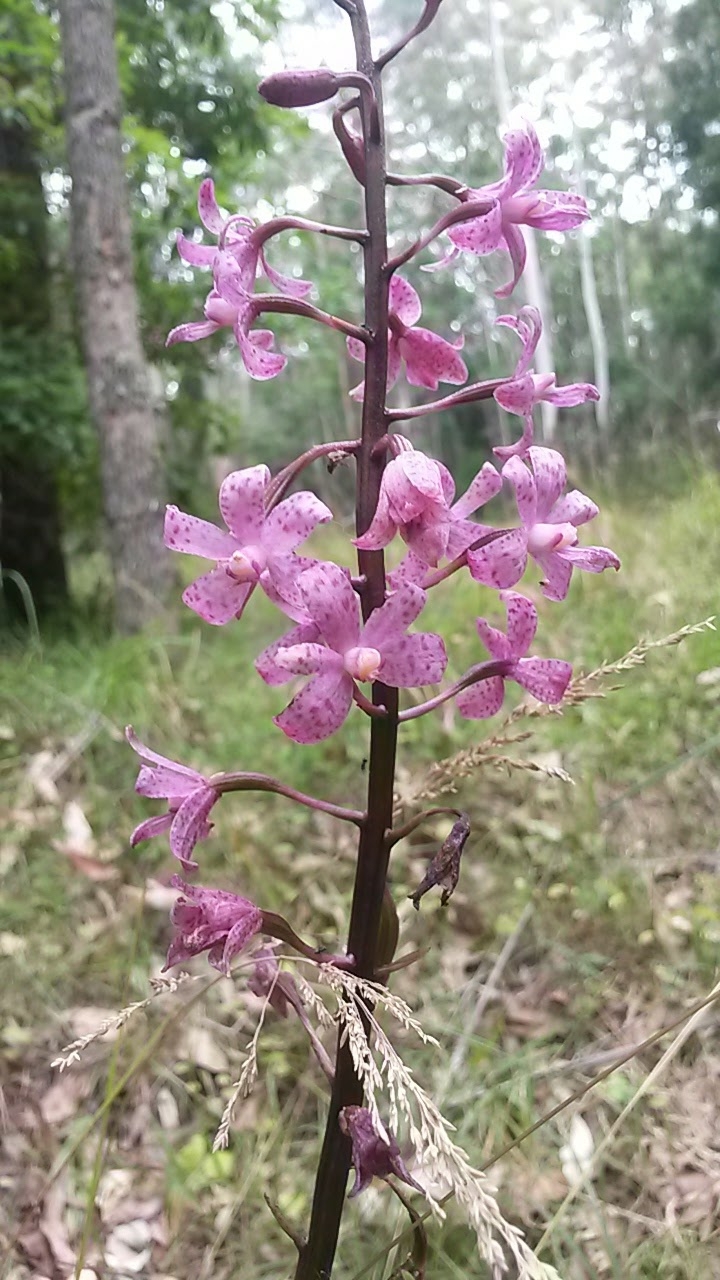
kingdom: Plantae
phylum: Tracheophyta
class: Liliopsida
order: Asparagales
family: Orchidaceae
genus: Dipodium
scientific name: Dipodium roseum
